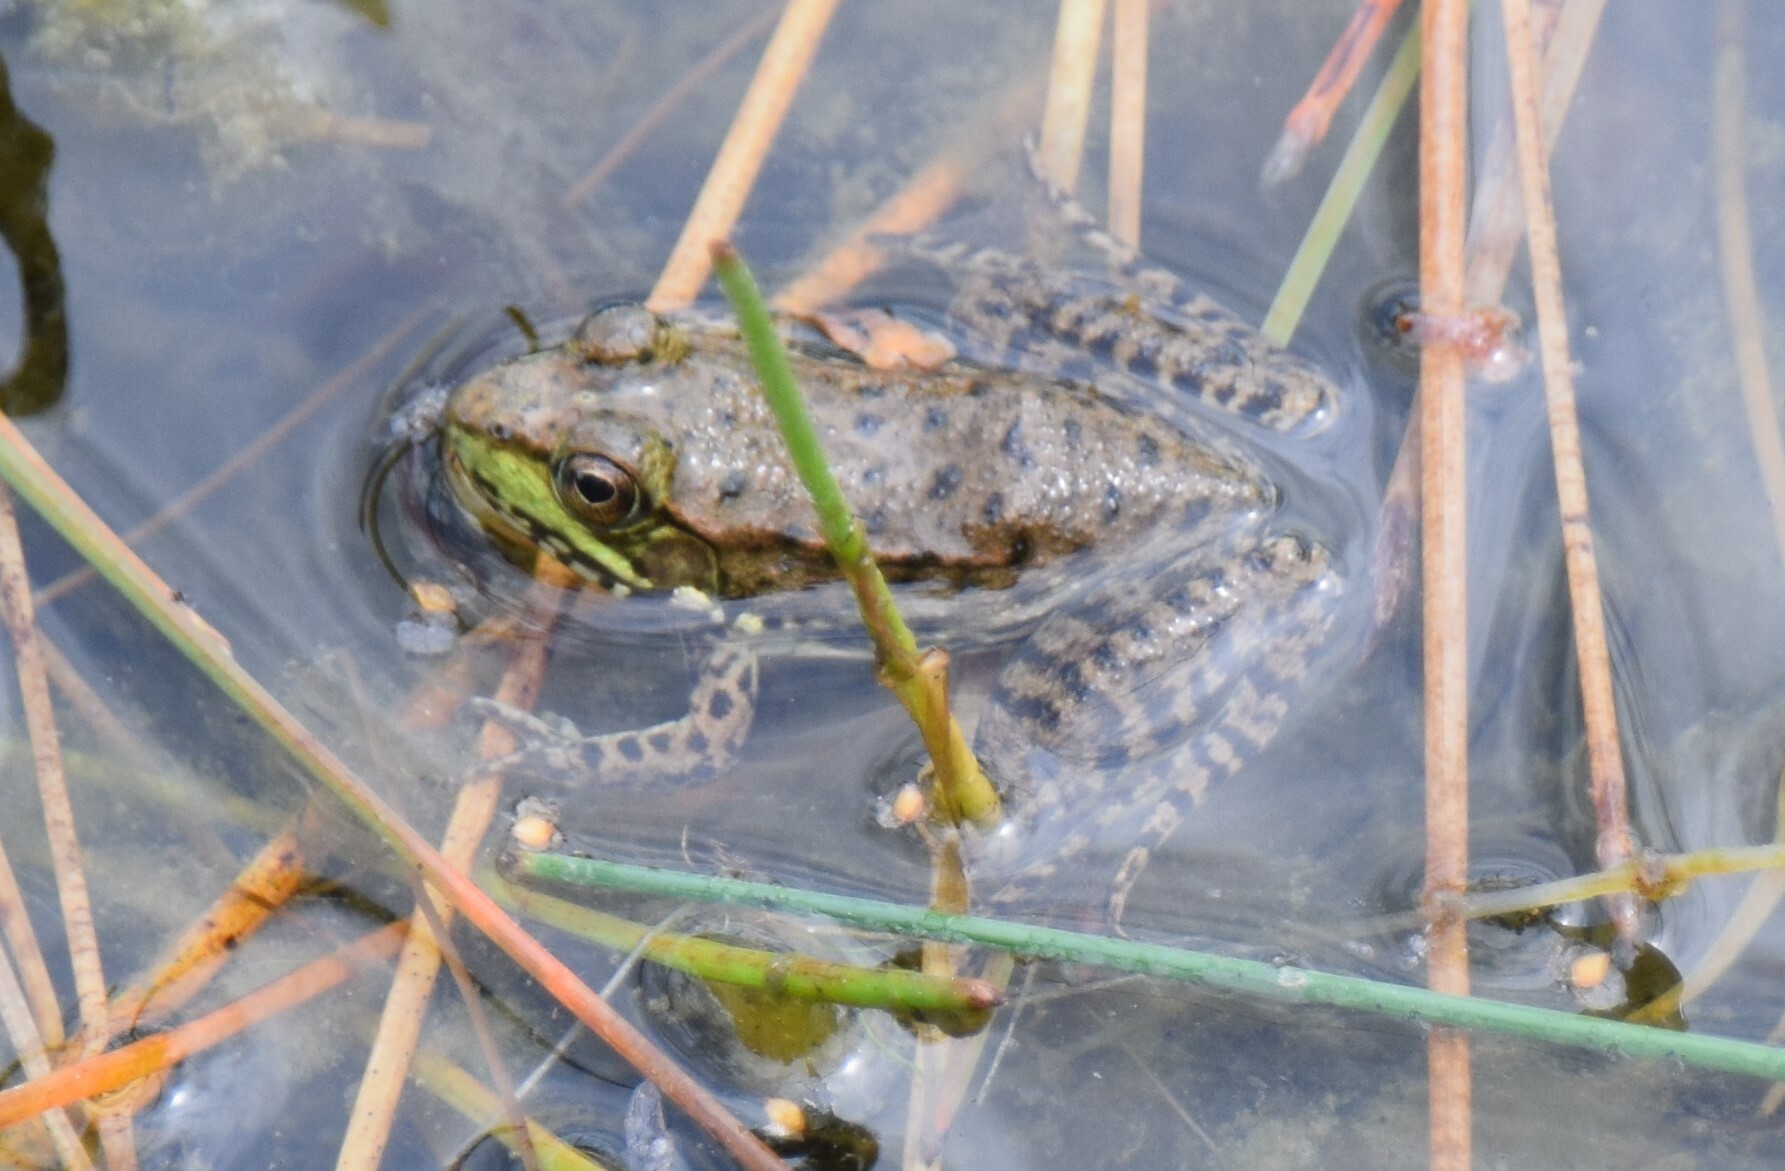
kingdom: Animalia
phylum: Chordata
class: Amphibia
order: Anura
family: Ranidae
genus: Lithobates
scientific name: Lithobates clamitans
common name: Green frog
